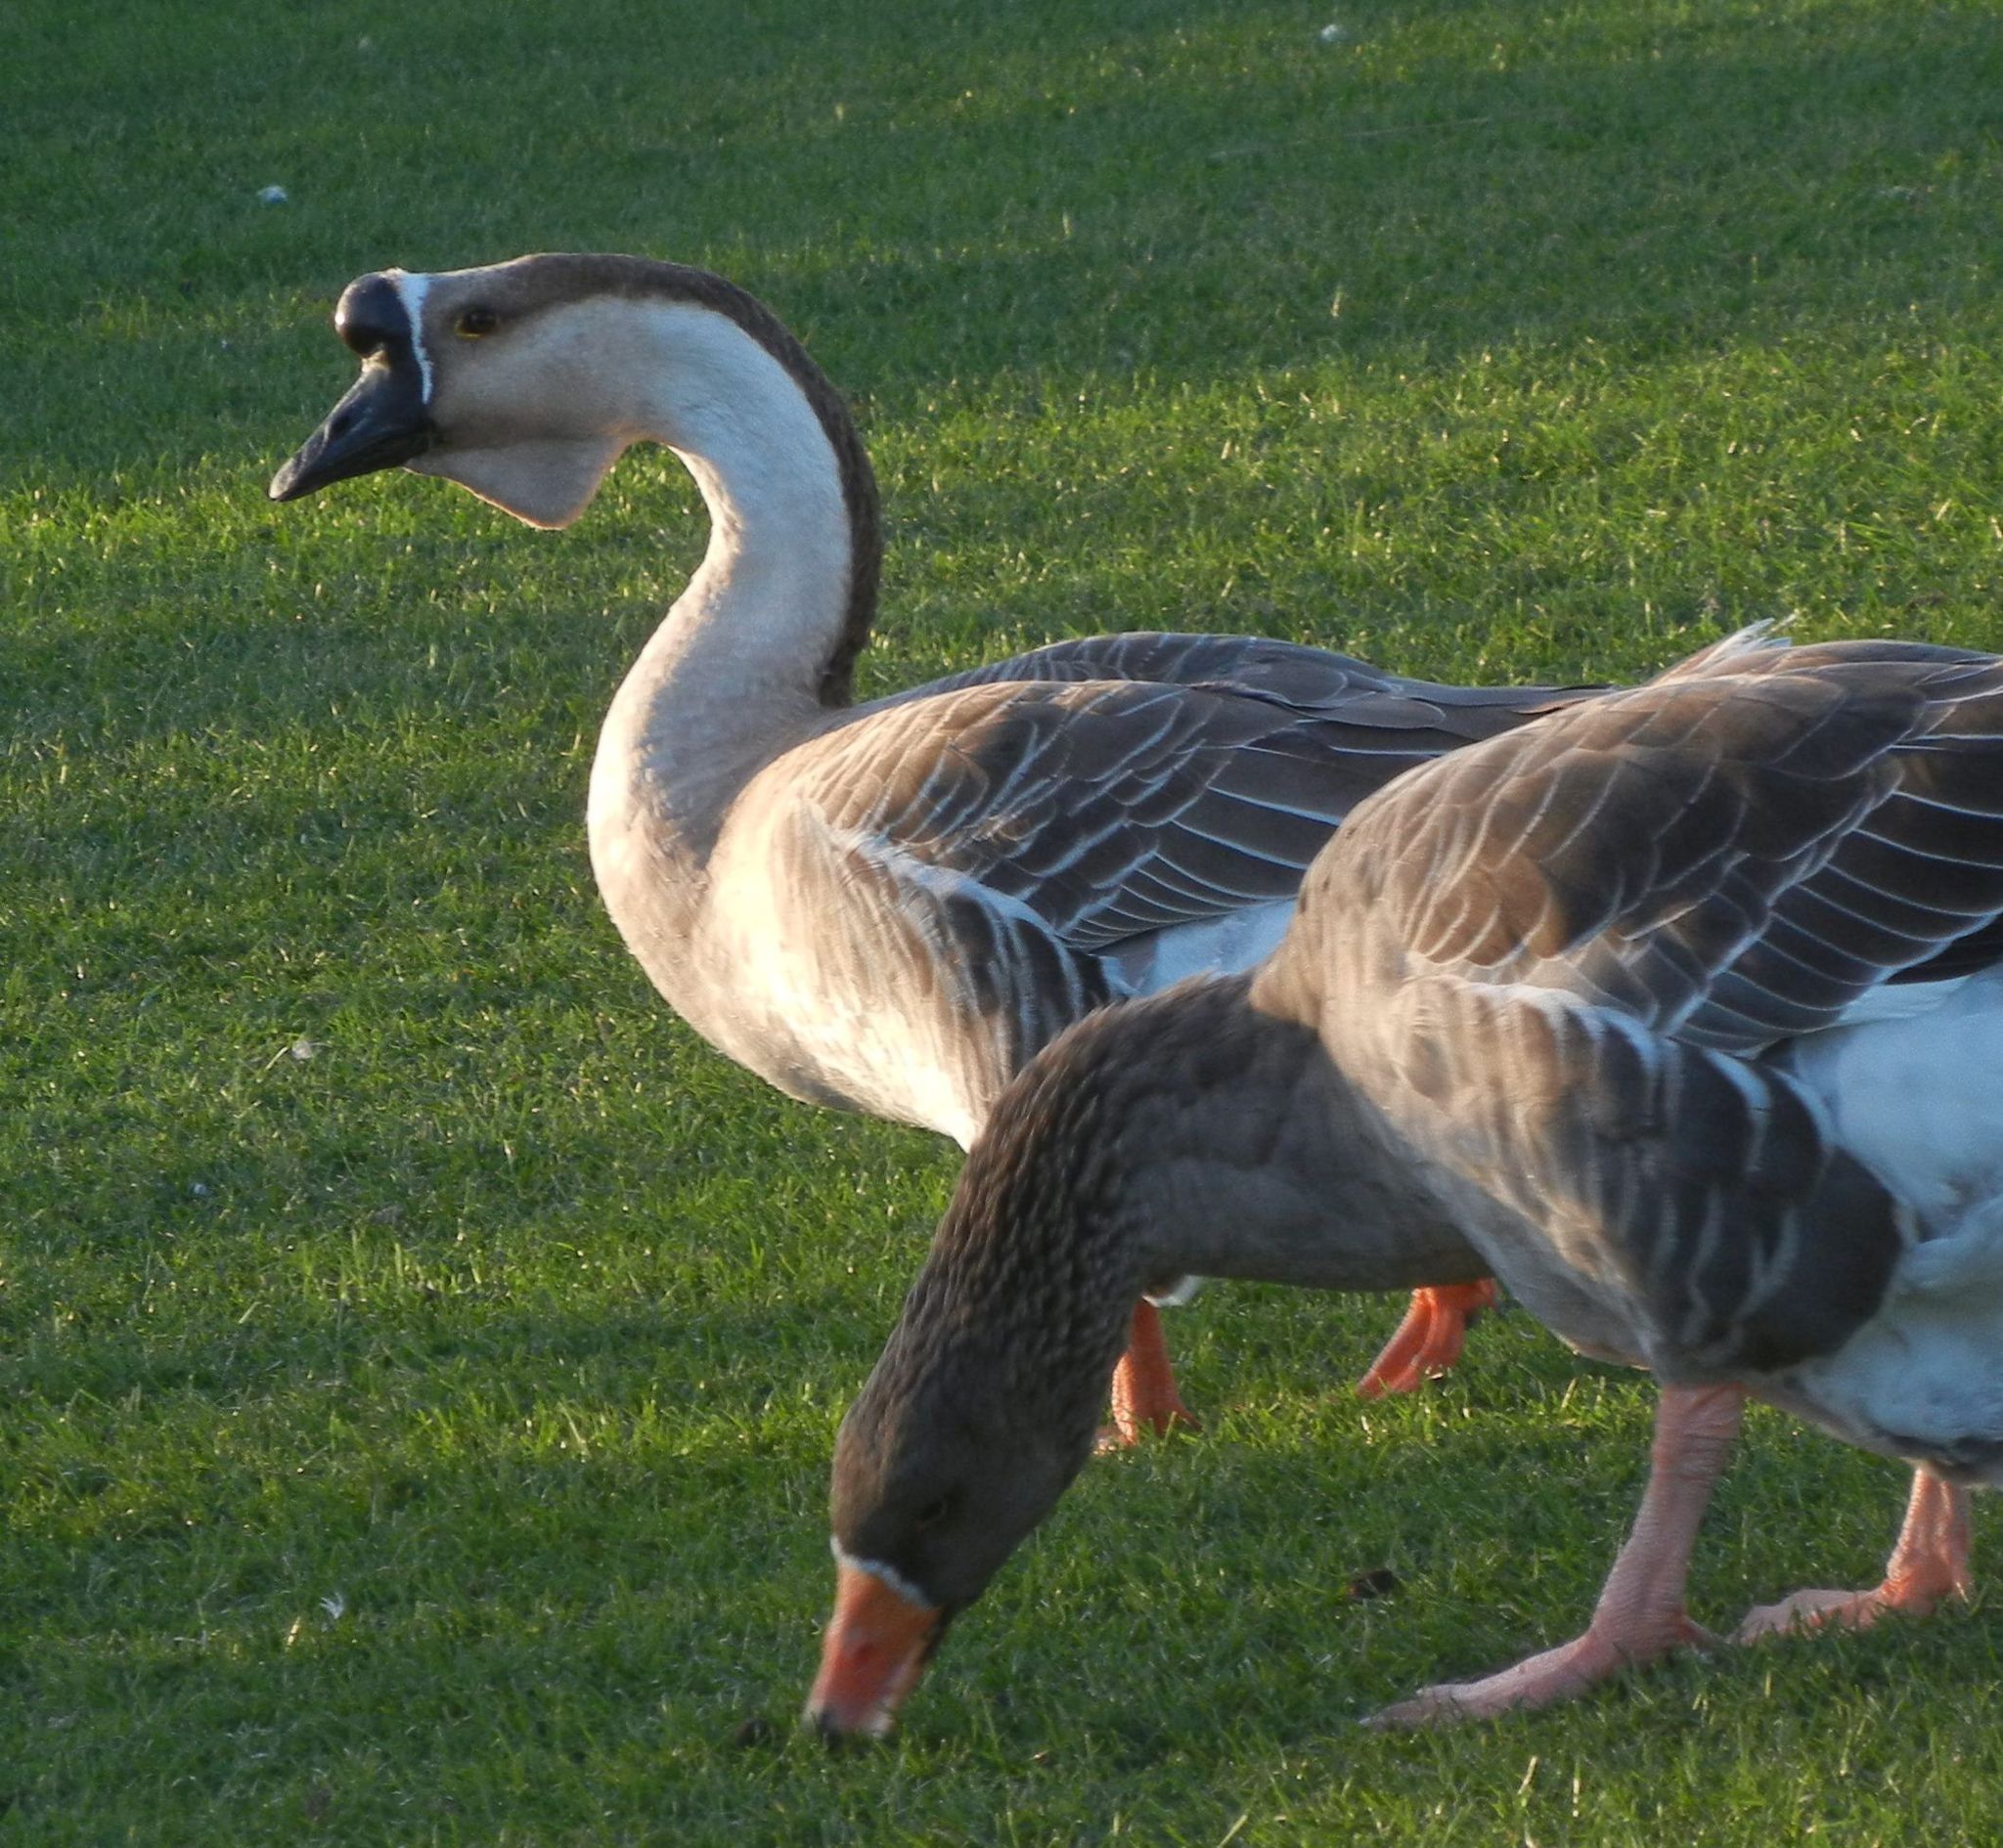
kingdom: Animalia
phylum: Chordata
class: Aves
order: Anseriformes
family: Anatidae
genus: Anser
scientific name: Anser cygnoides
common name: Swan goose
